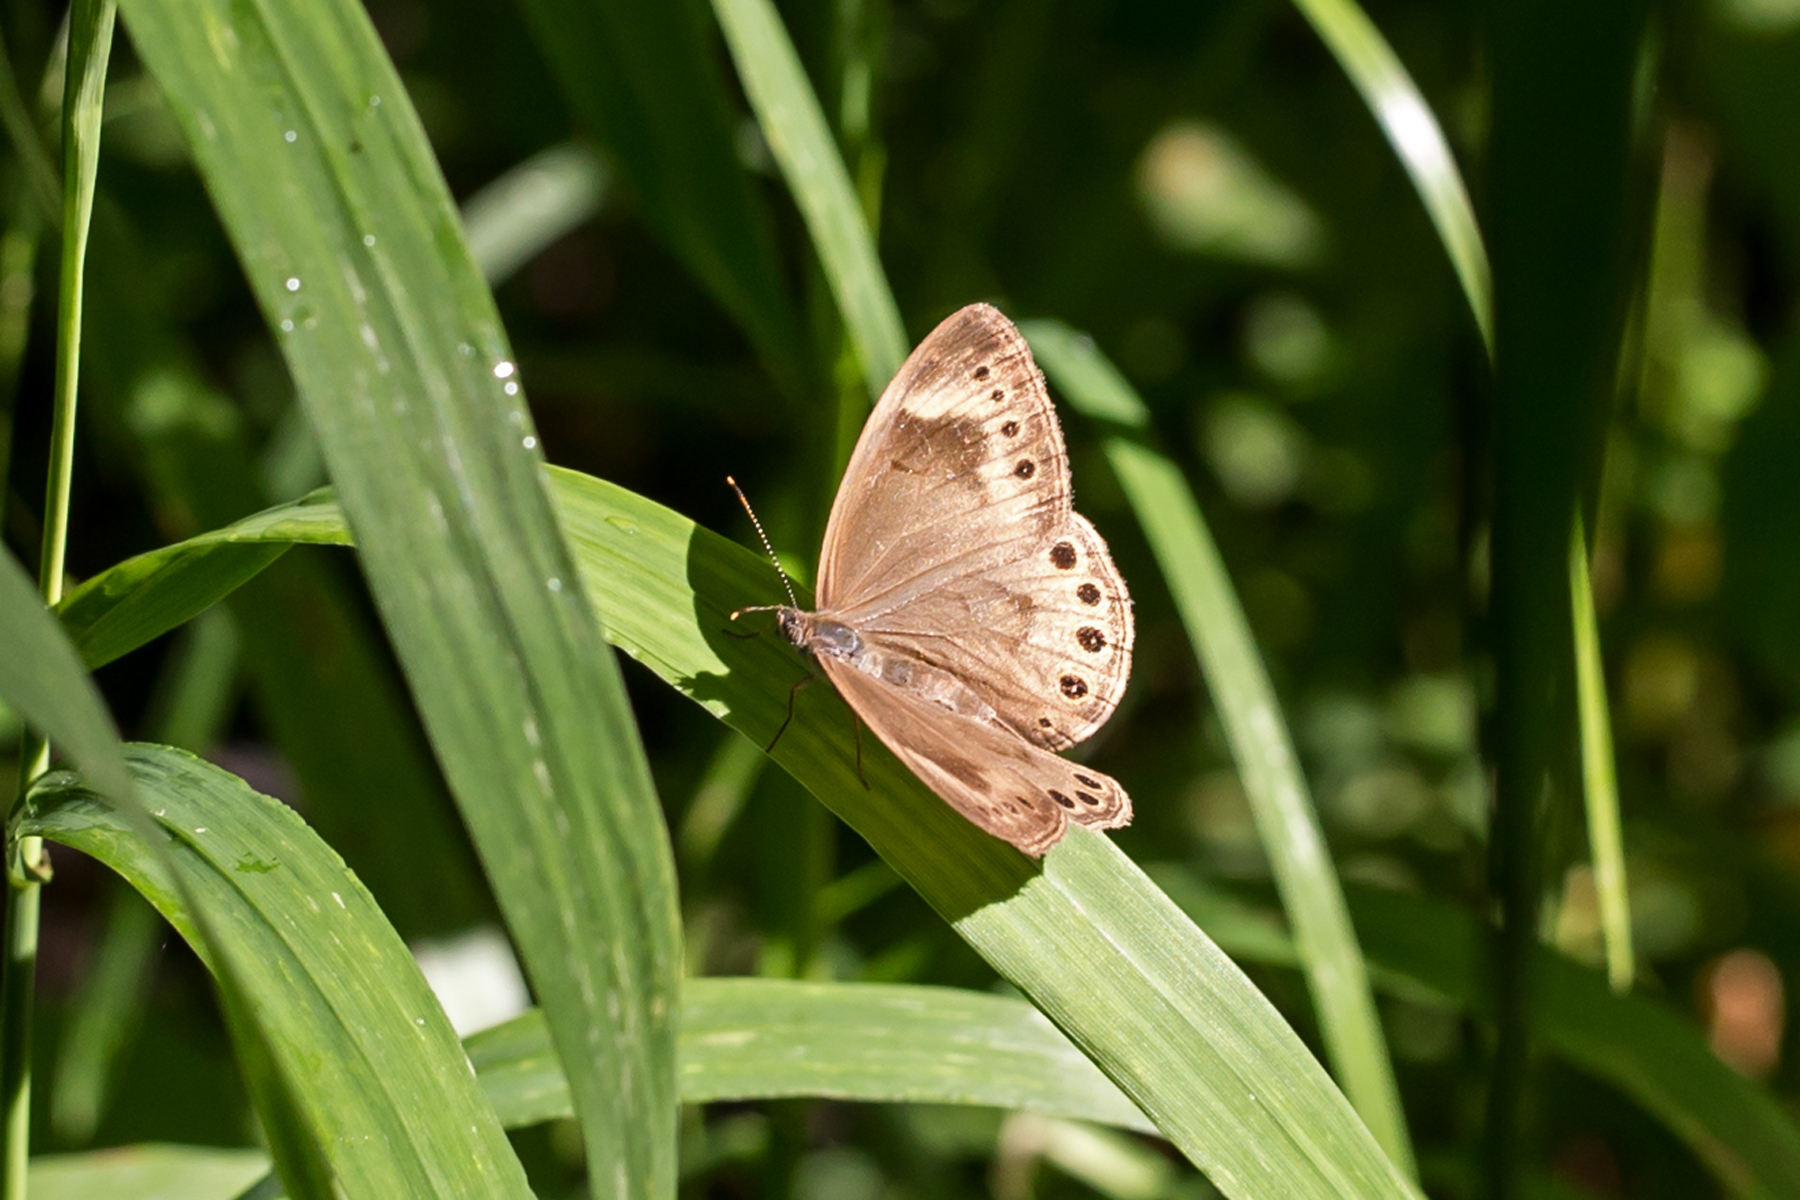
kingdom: Animalia
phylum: Arthropoda
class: Insecta
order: Lepidoptera
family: Nymphalidae
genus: Lethe
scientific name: Lethe eurydice
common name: Eyed brown
